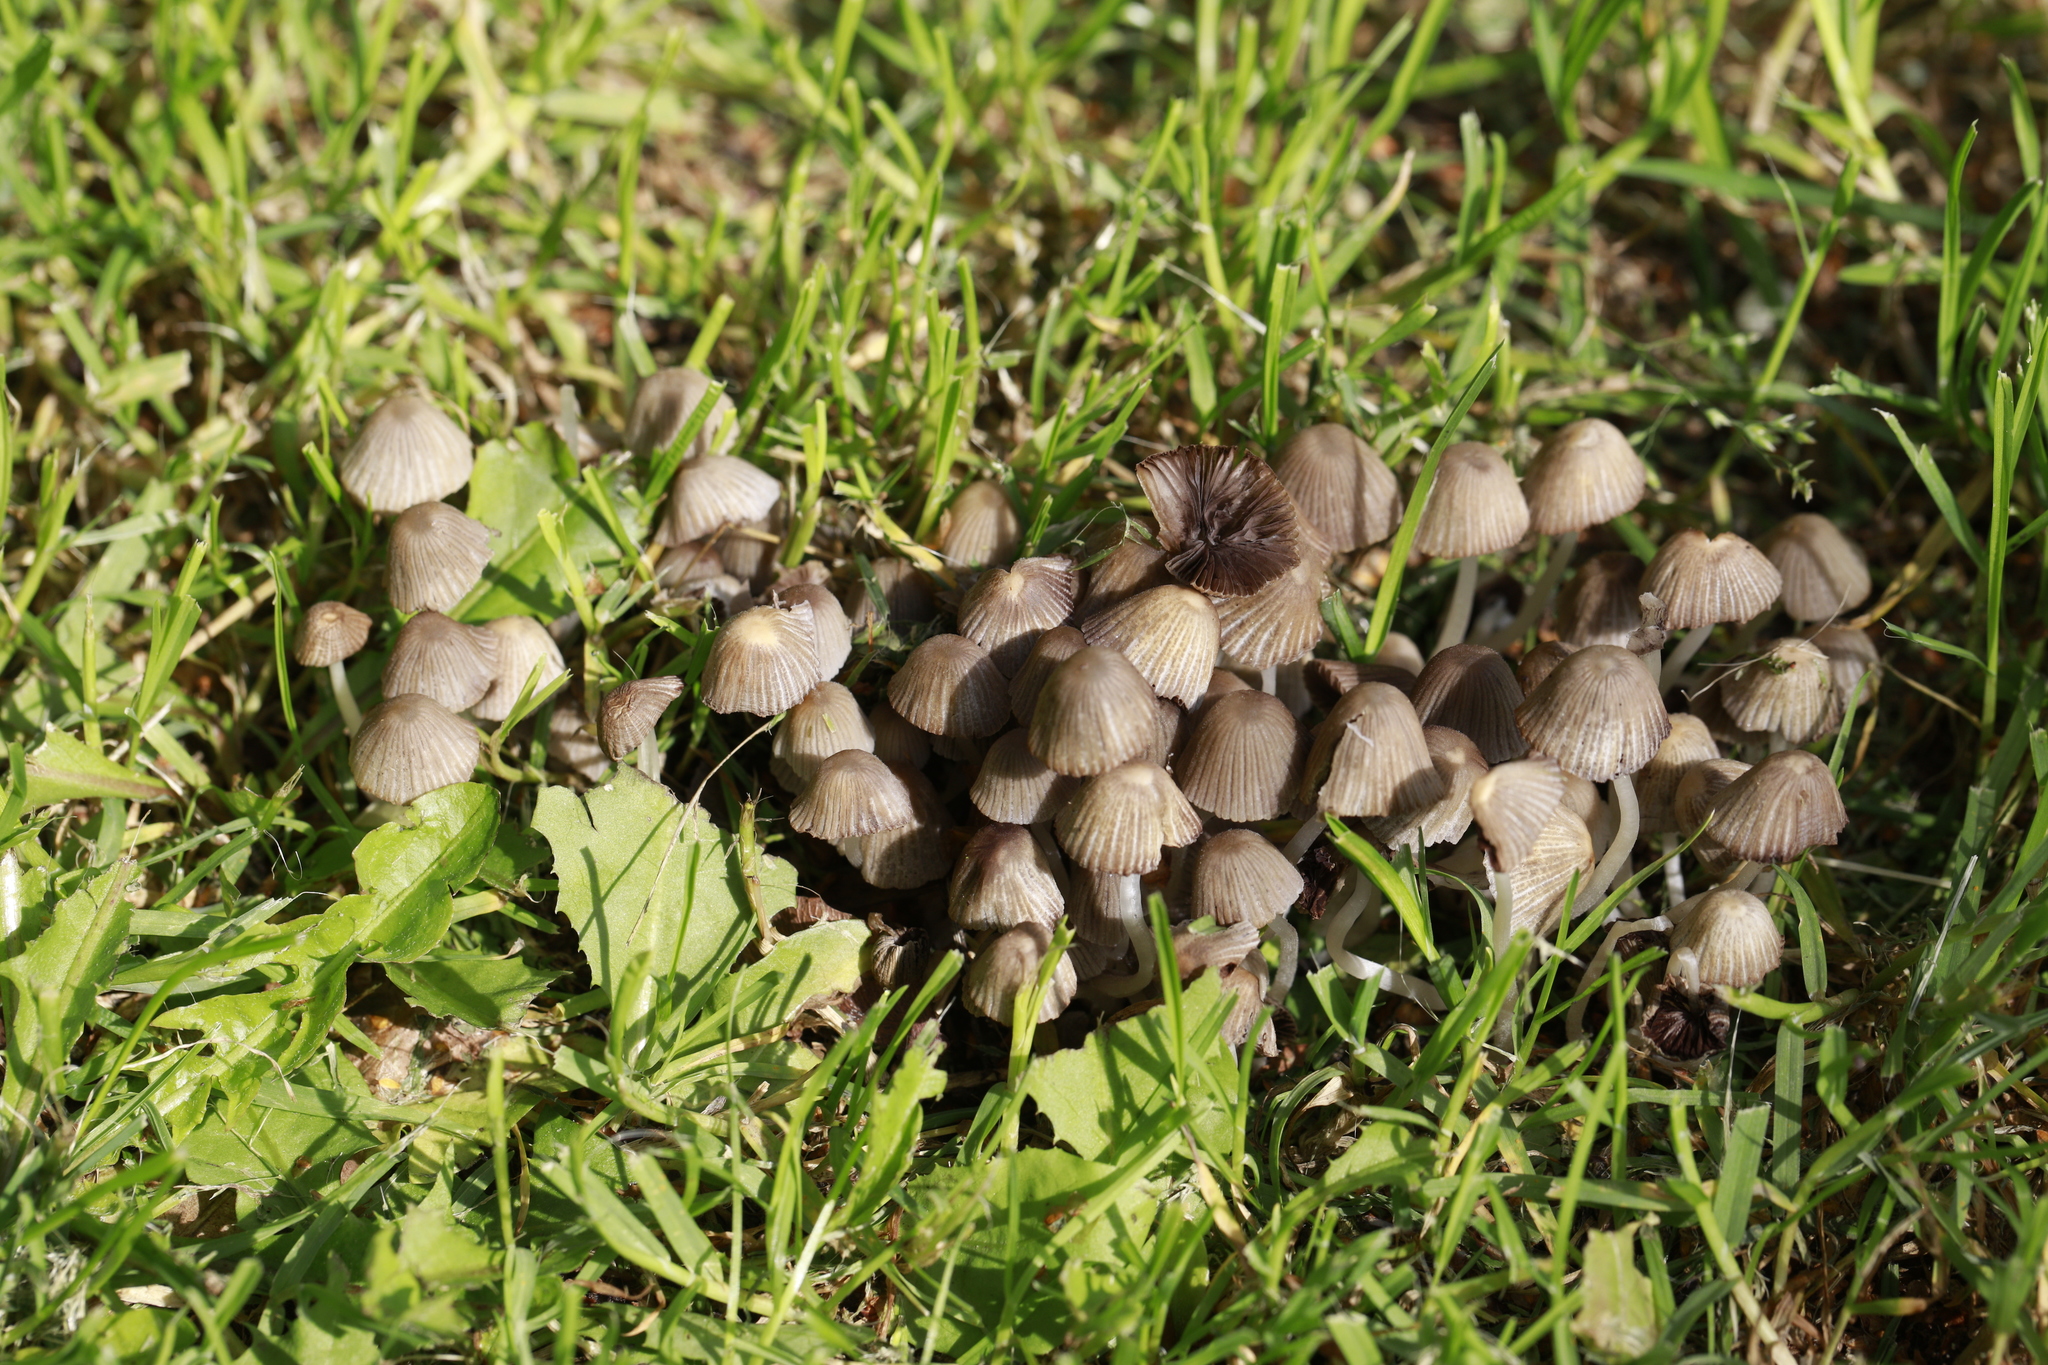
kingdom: Fungi
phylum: Basidiomycota
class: Agaricomycetes
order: Agaricales
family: Psathyrellaceae
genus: Coprinellus
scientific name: Coprinellus disseminatus
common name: Fairies' bonnets
